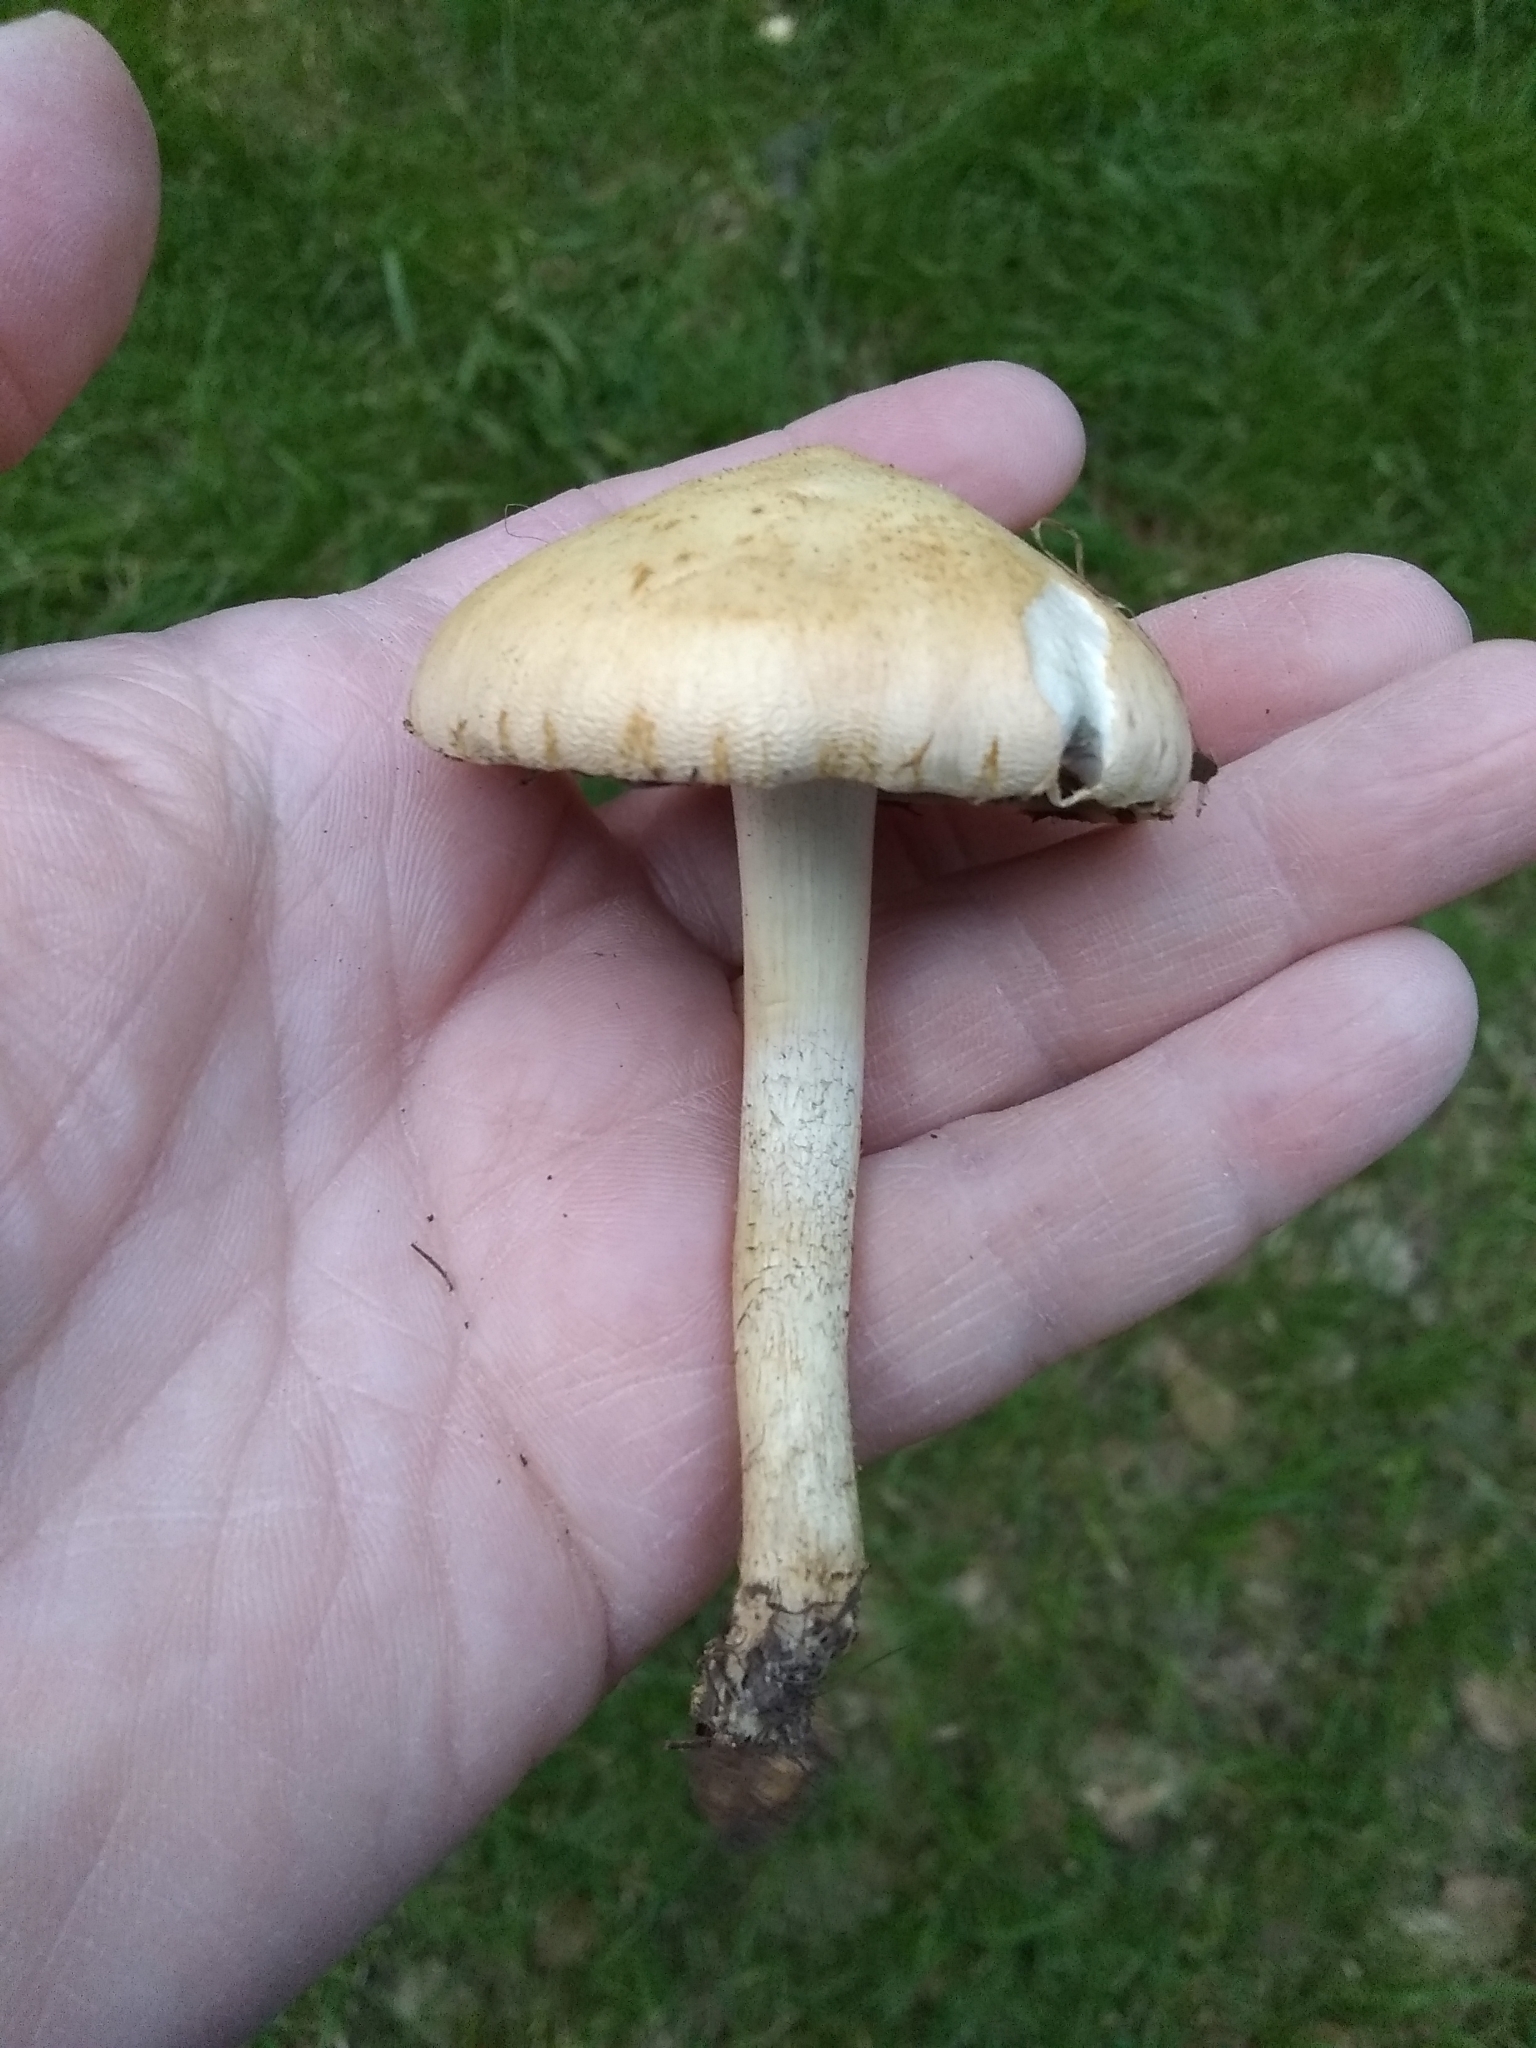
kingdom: Fungi
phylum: Basidiomycota
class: Agaricomycetes
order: Agaricales
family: Strophariaceae
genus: Leratiomyces
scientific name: Leratiomyces percevalii
